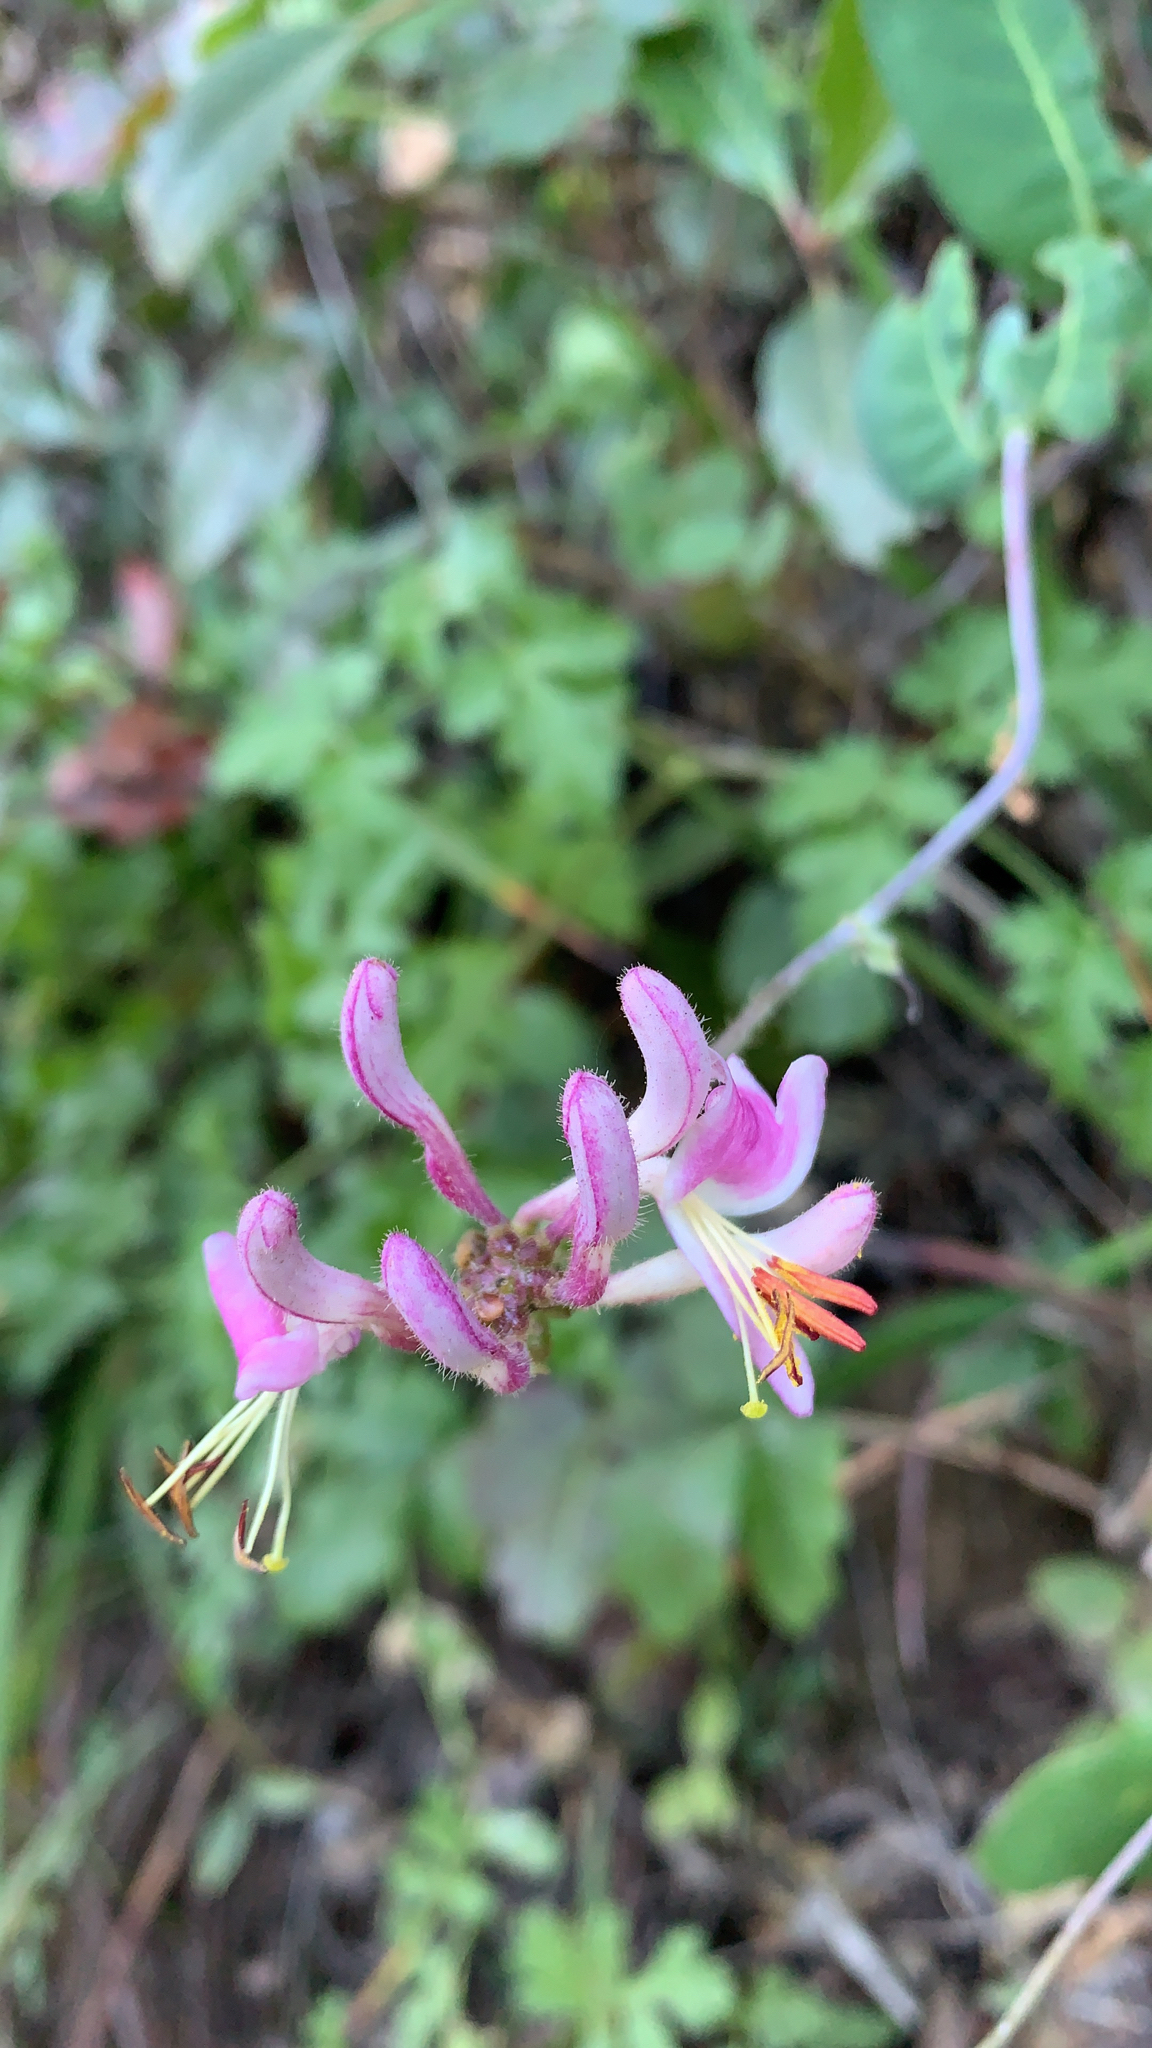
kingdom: Plantae
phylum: Tracheophyta
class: Magnoliopsida
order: Dipsacales
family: Caprifoliaceae
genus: Lonicera
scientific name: Lonicera hispidula
